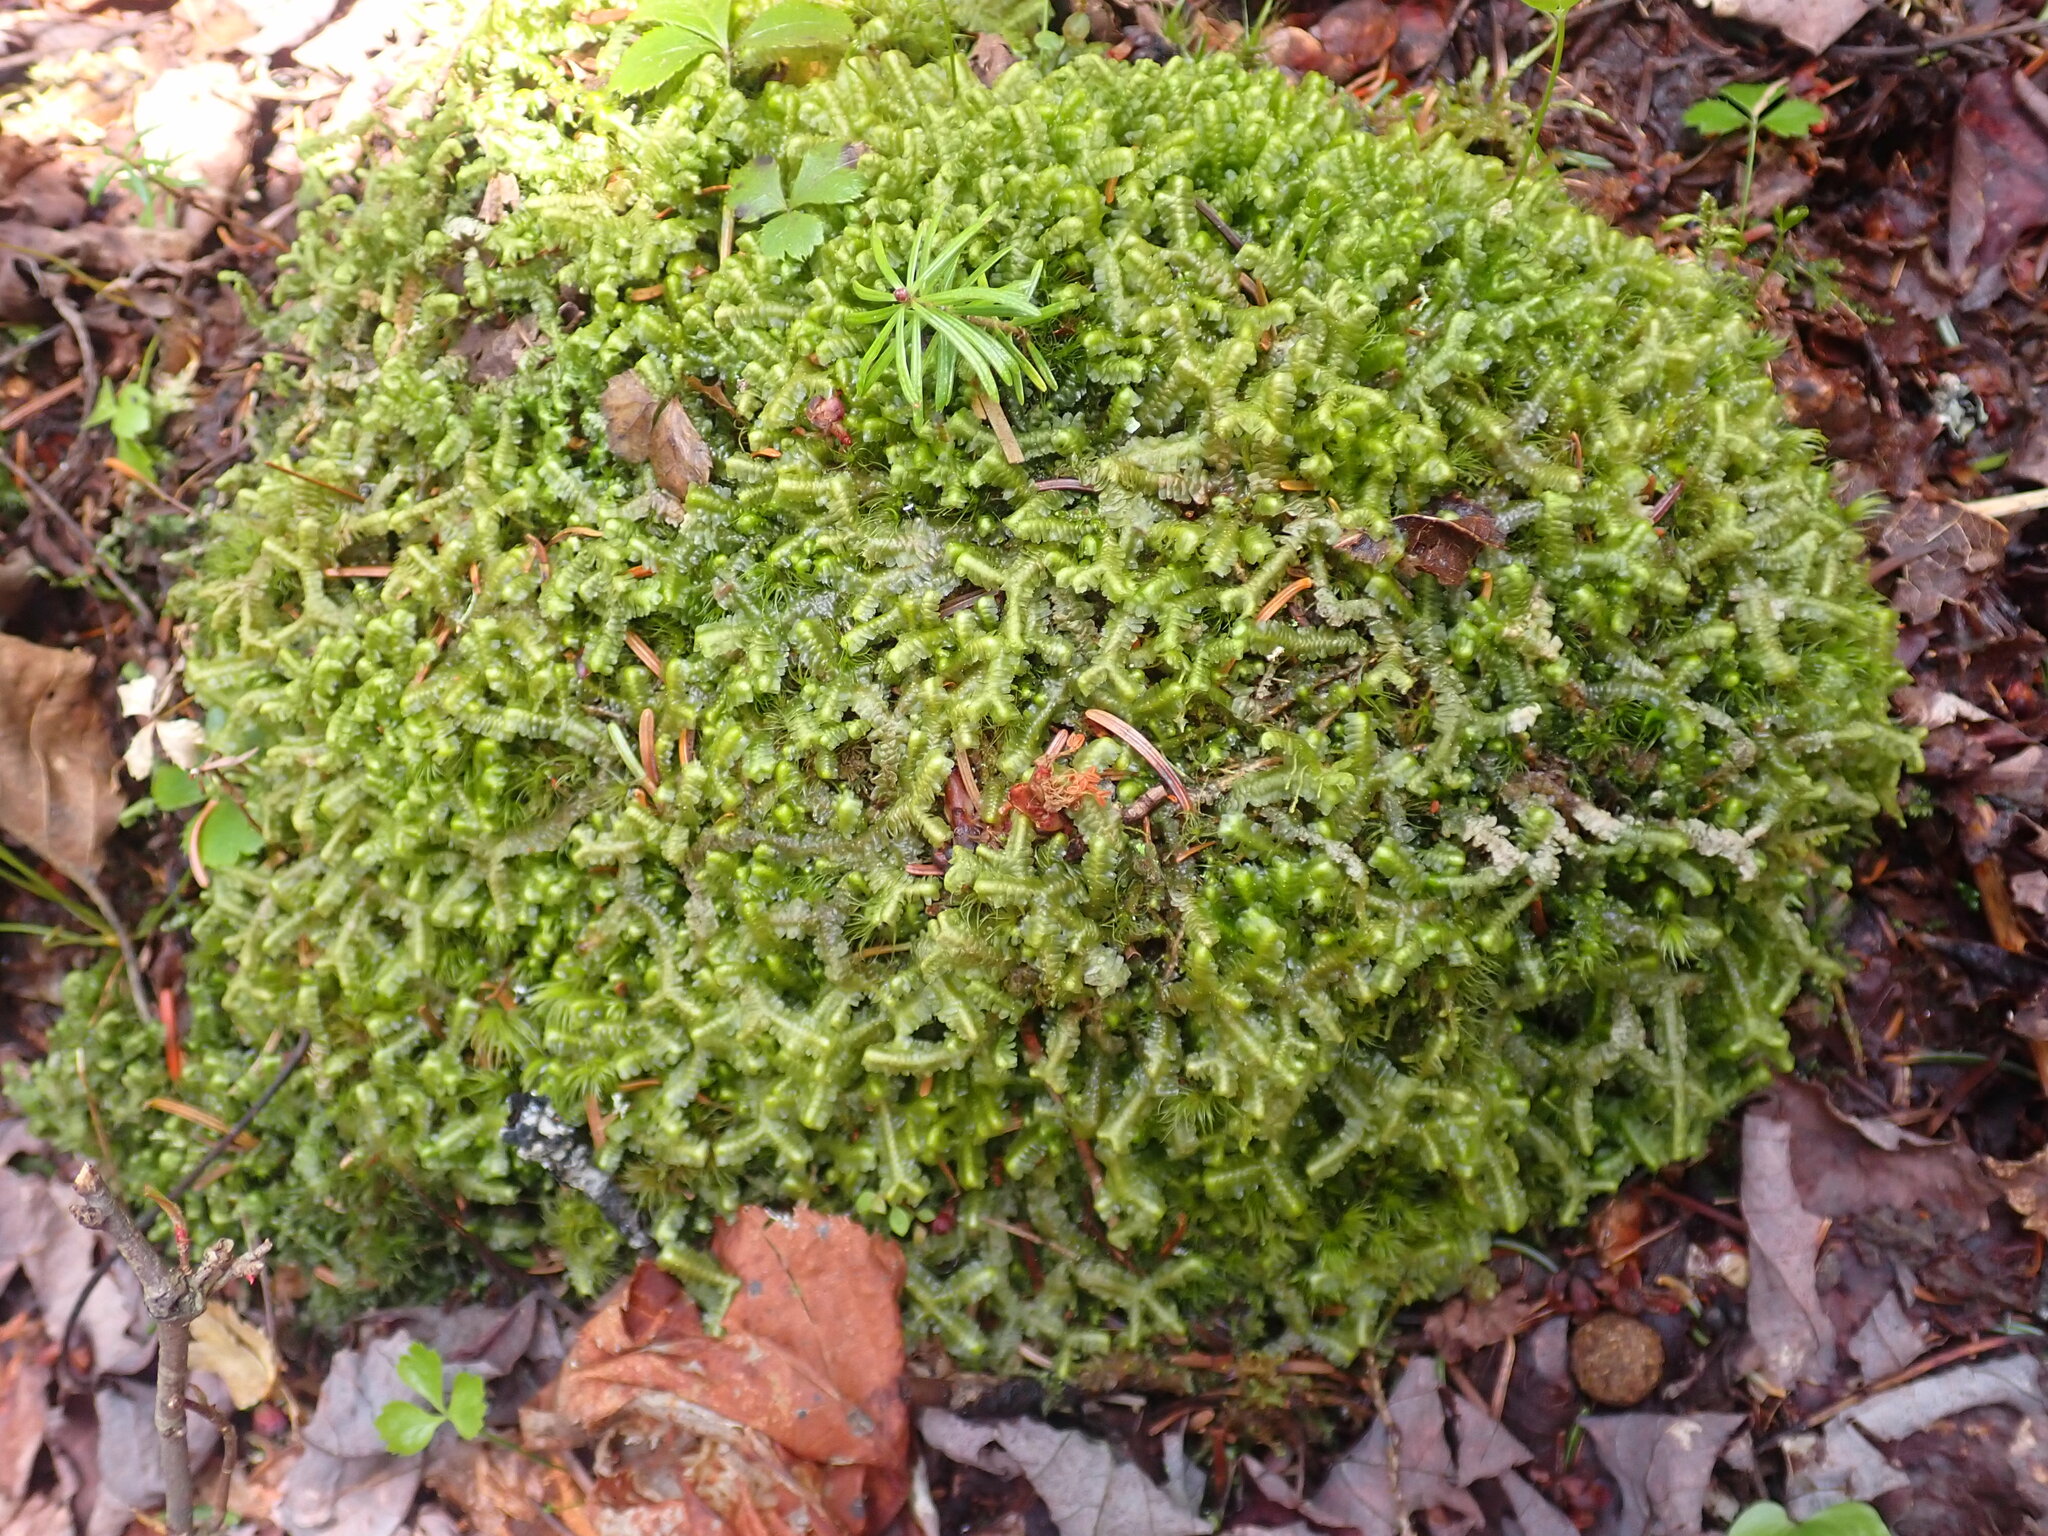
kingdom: Plantae
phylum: Marchantiophyta
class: Jungermanniopsida
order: Jungermanniales
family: Lepidoziaceae
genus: Bazzania
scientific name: Bazzania trilobata
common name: Three-lobed whipwort
